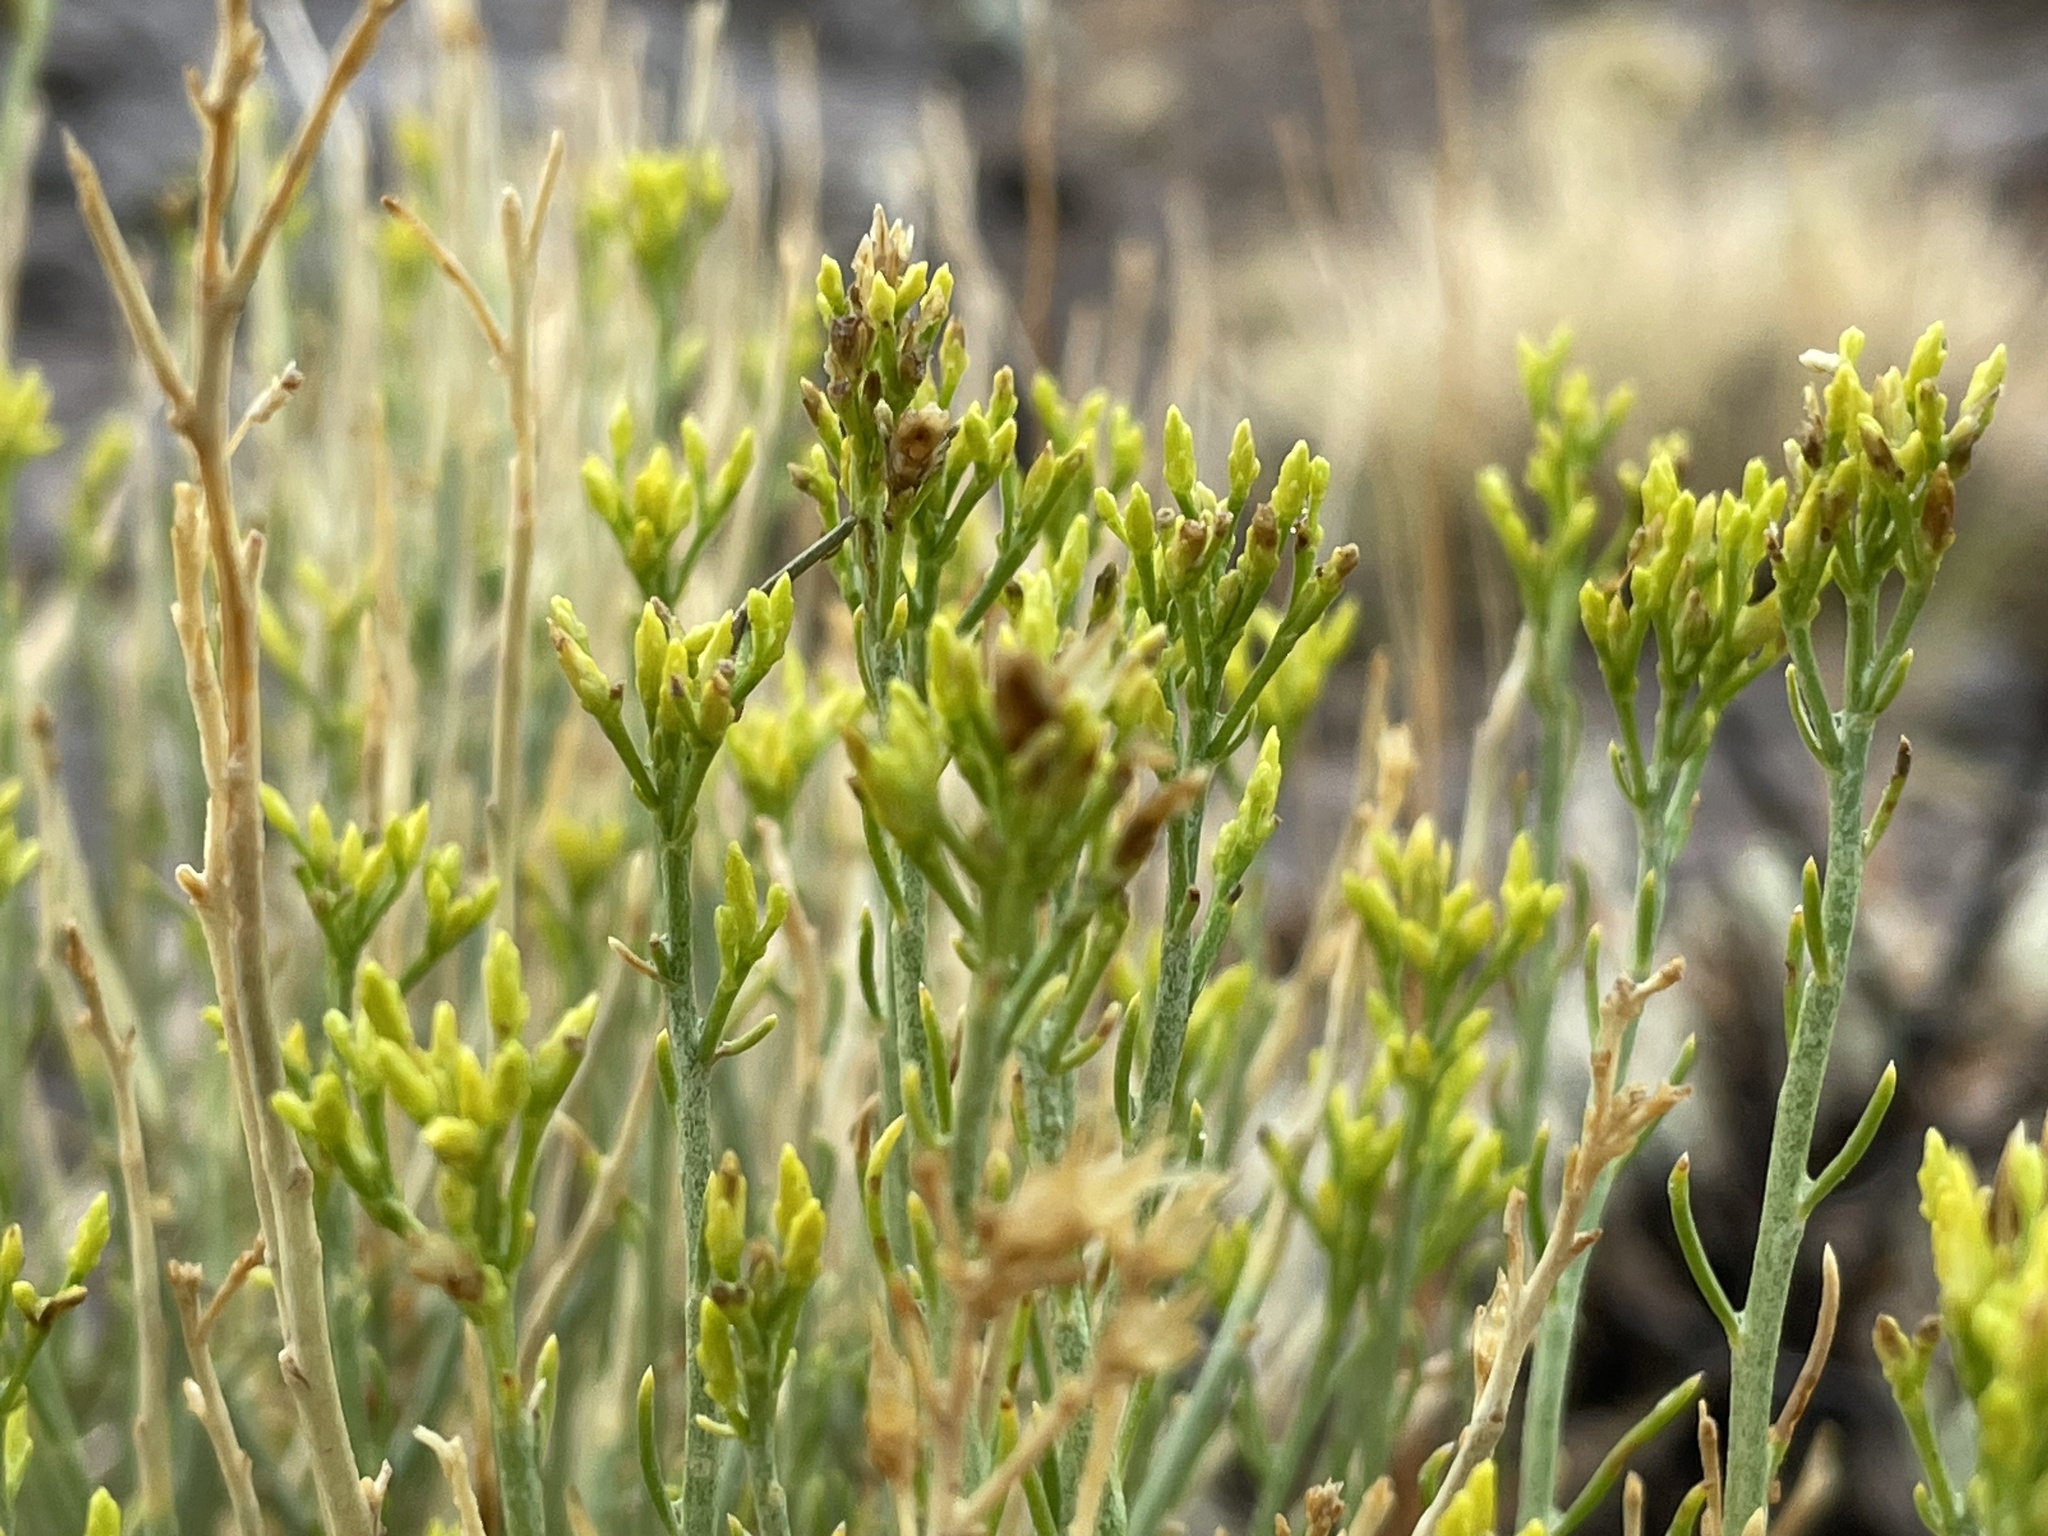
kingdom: Plantae
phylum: Tracheophyta
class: Magnoliopsida
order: Asterales
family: Asteraceae
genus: Ericameria
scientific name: Ericameria nauseosa
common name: Rubber rabbitbrush
